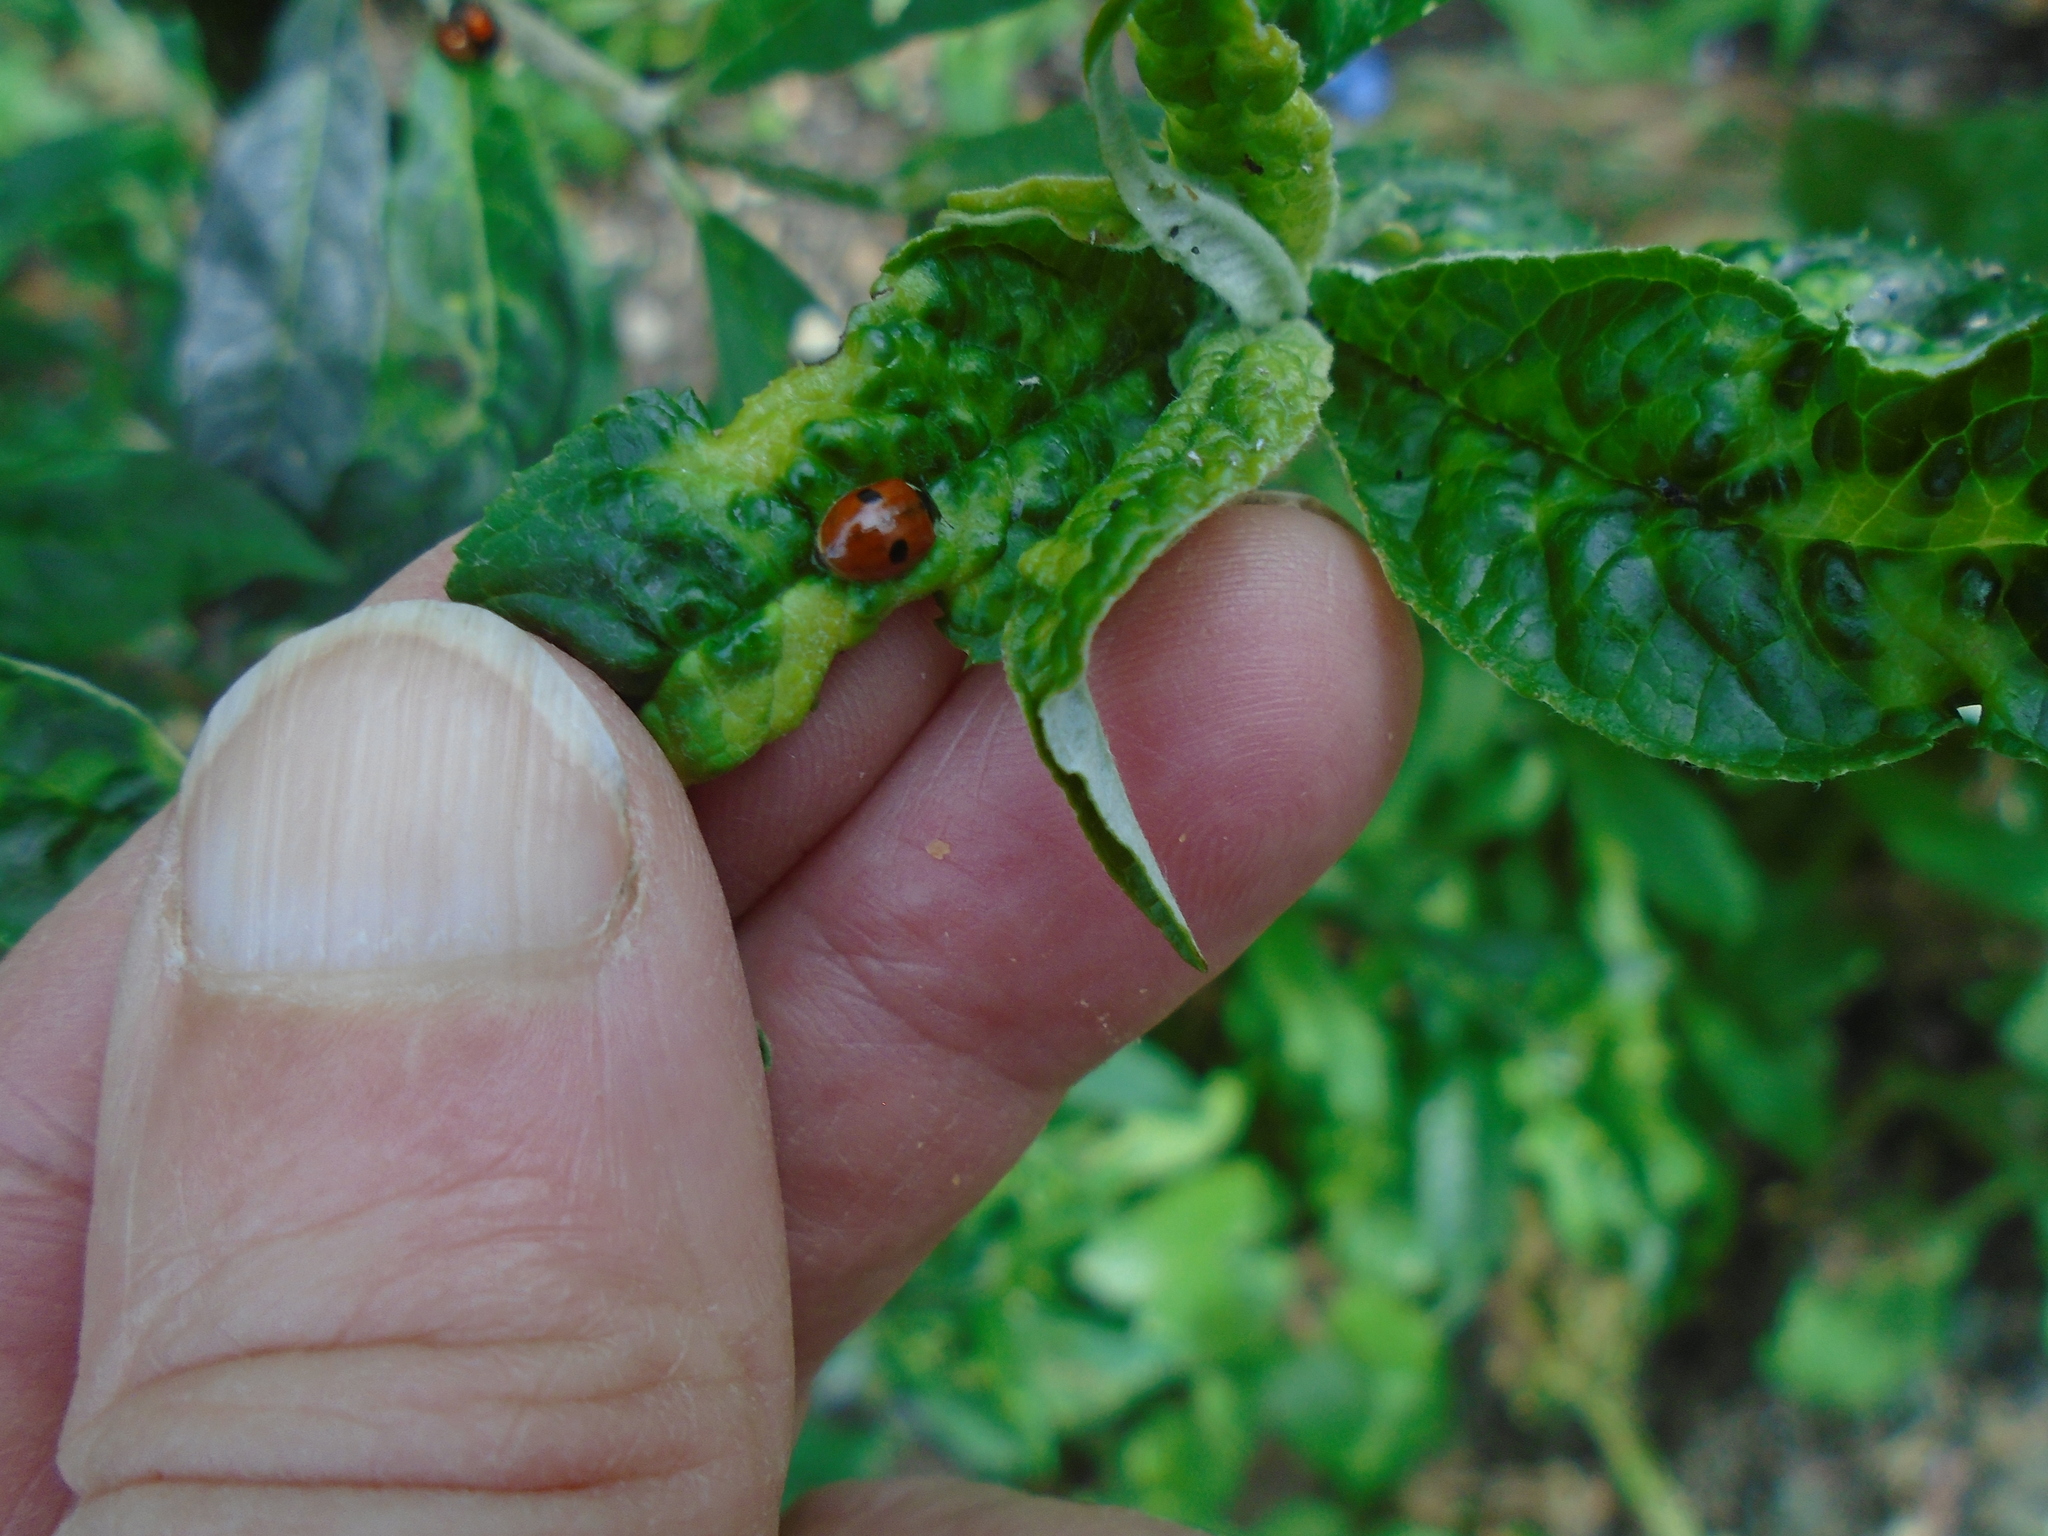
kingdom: Animalia
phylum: Arthropoda
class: Insecta
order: Coleoptera
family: Coccinellidae
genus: Adalia
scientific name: Adalia bipunctata
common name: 2-spot ladybird
